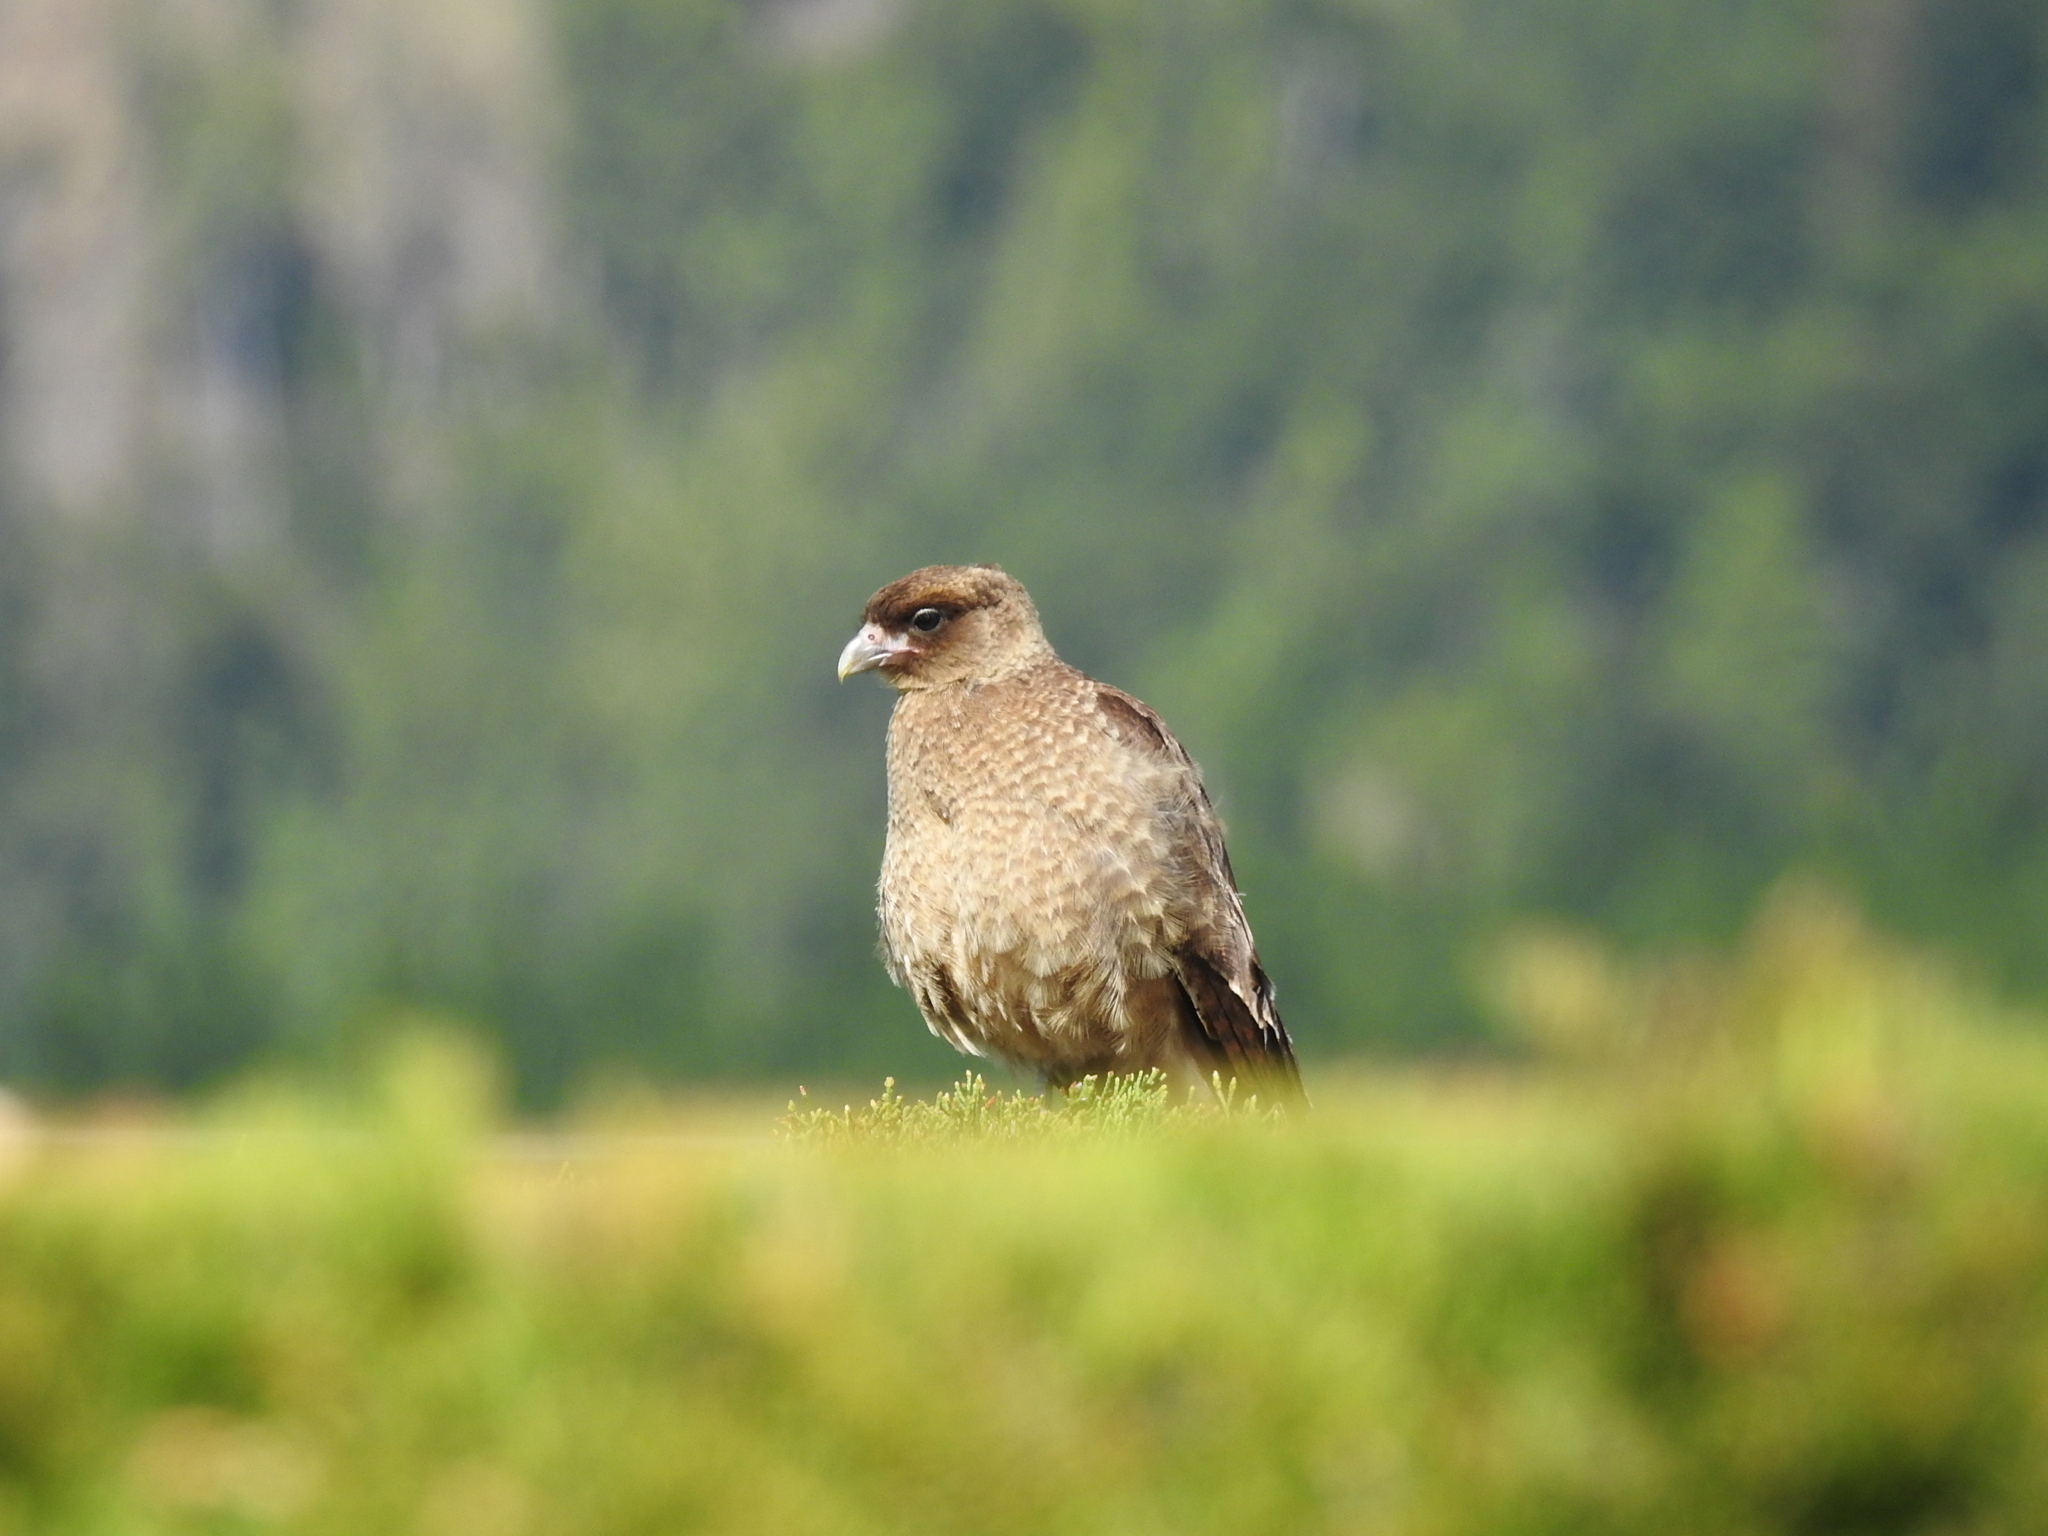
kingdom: Animalia
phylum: Chordata
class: Aves
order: Falconiformes
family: Falconidae
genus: Daptrius
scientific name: Daptrius
